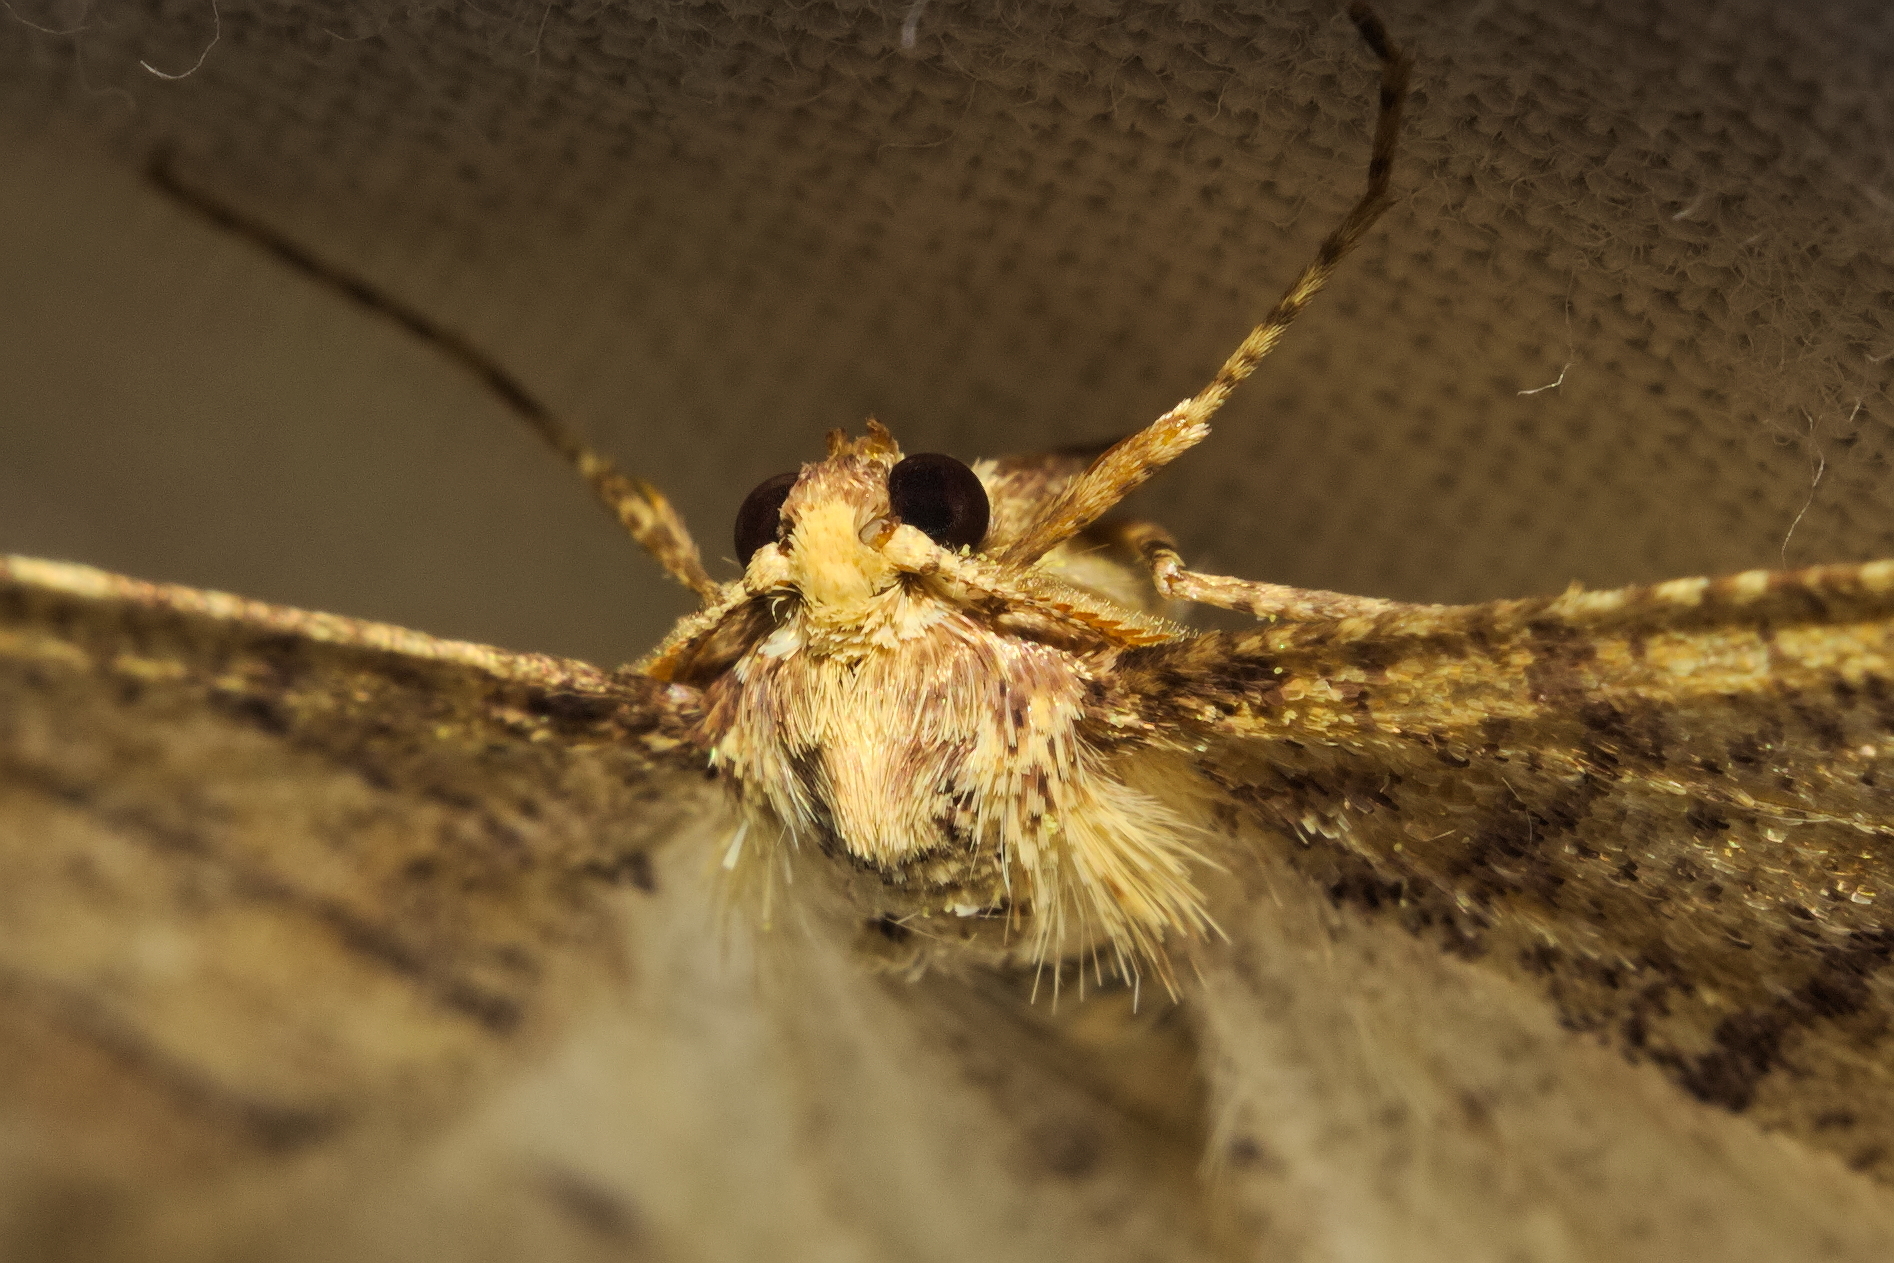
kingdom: Animalia
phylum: Arthropoda
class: Insecta
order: Lepidoptera
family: Geometridae
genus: Agriopis
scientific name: Agriopis marginaria
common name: Dotted border
